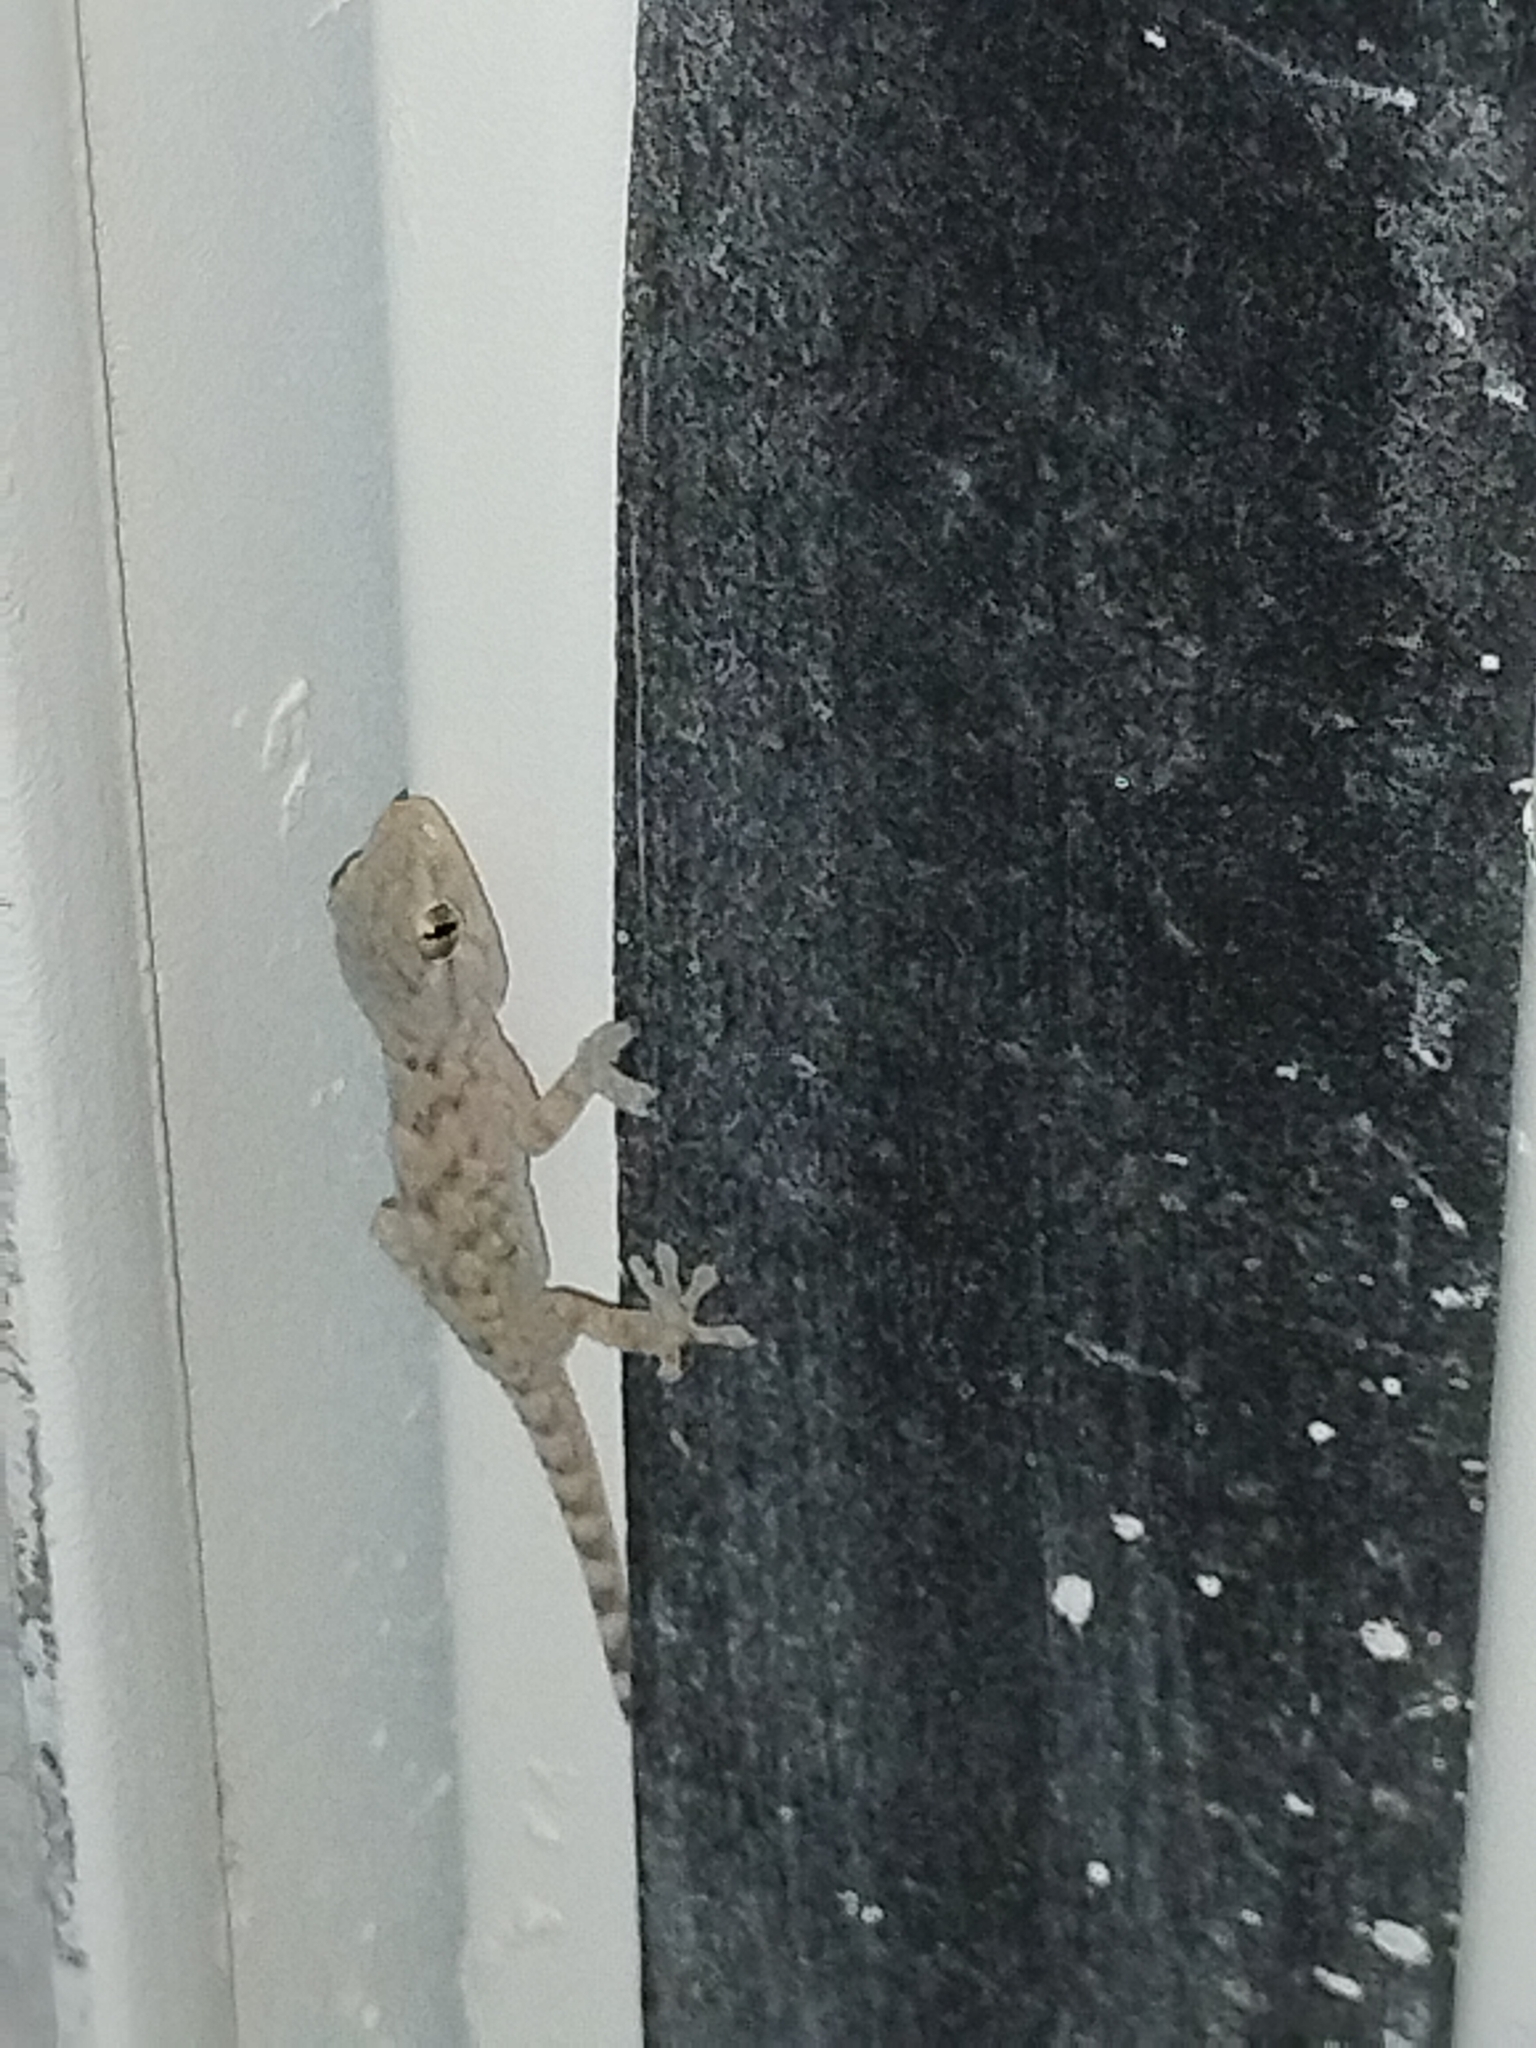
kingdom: Animalia
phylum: Chordata
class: Squamata
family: Phyllodactylidae
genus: Tarentola
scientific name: Tarentola mauritanica
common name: Moorish gecko
